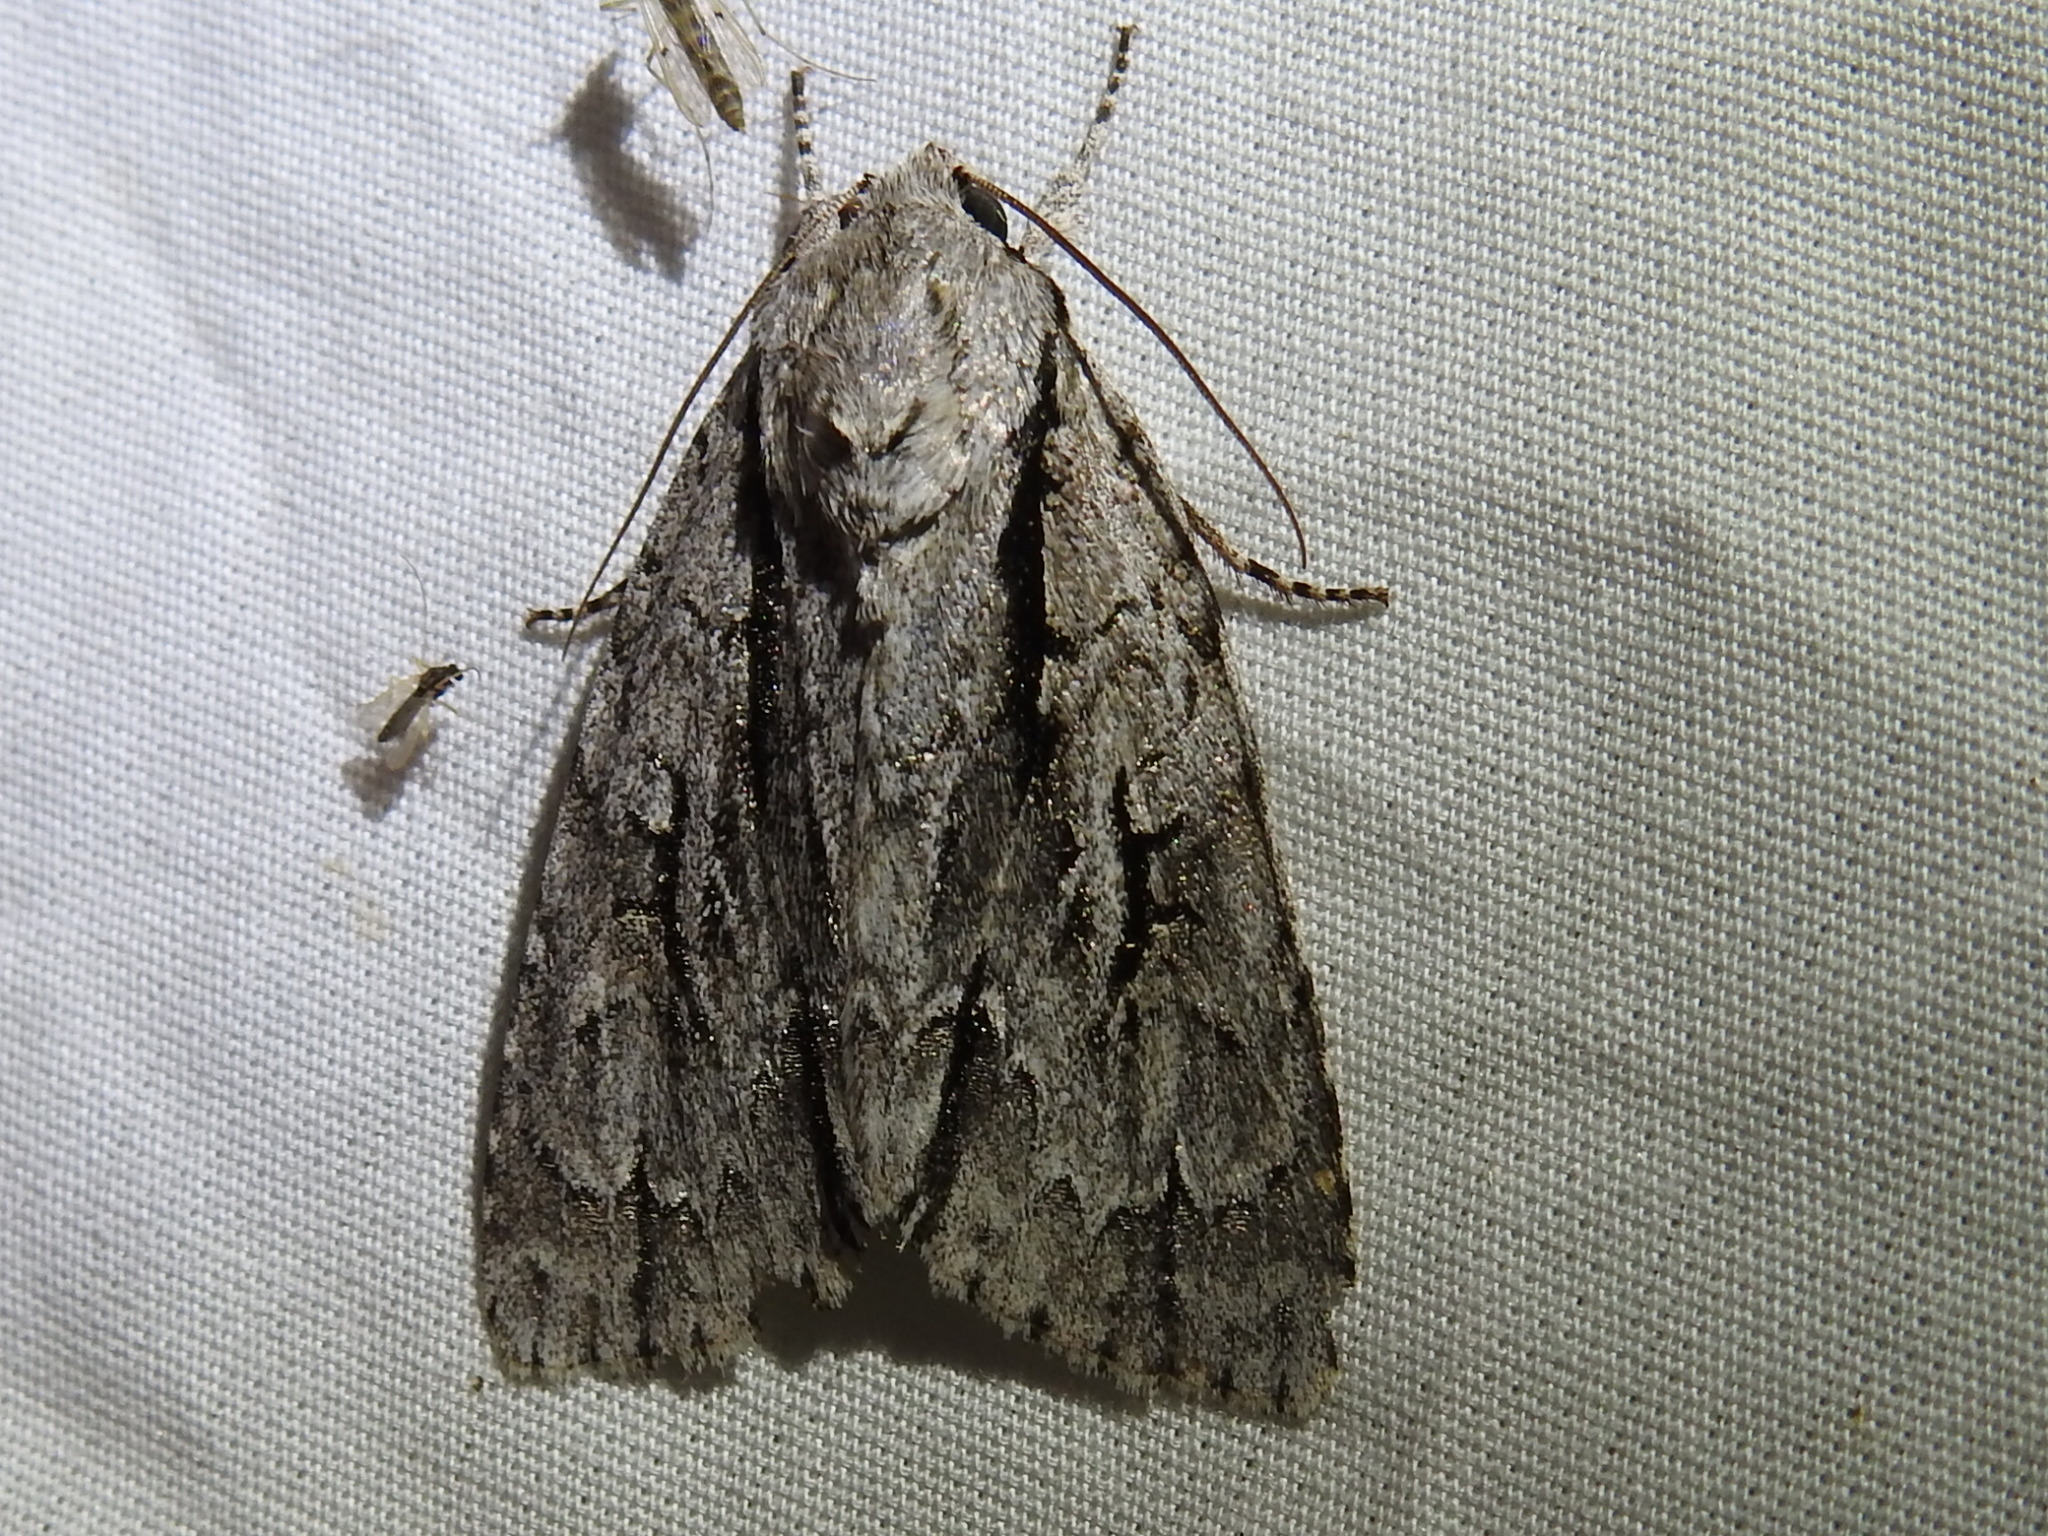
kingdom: Animalia
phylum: Arthropoda
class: Insecta
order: Lepidoptera
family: Noctuidae
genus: Acronicta
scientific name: Acronicta lobeliae
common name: Greater oak dagger
